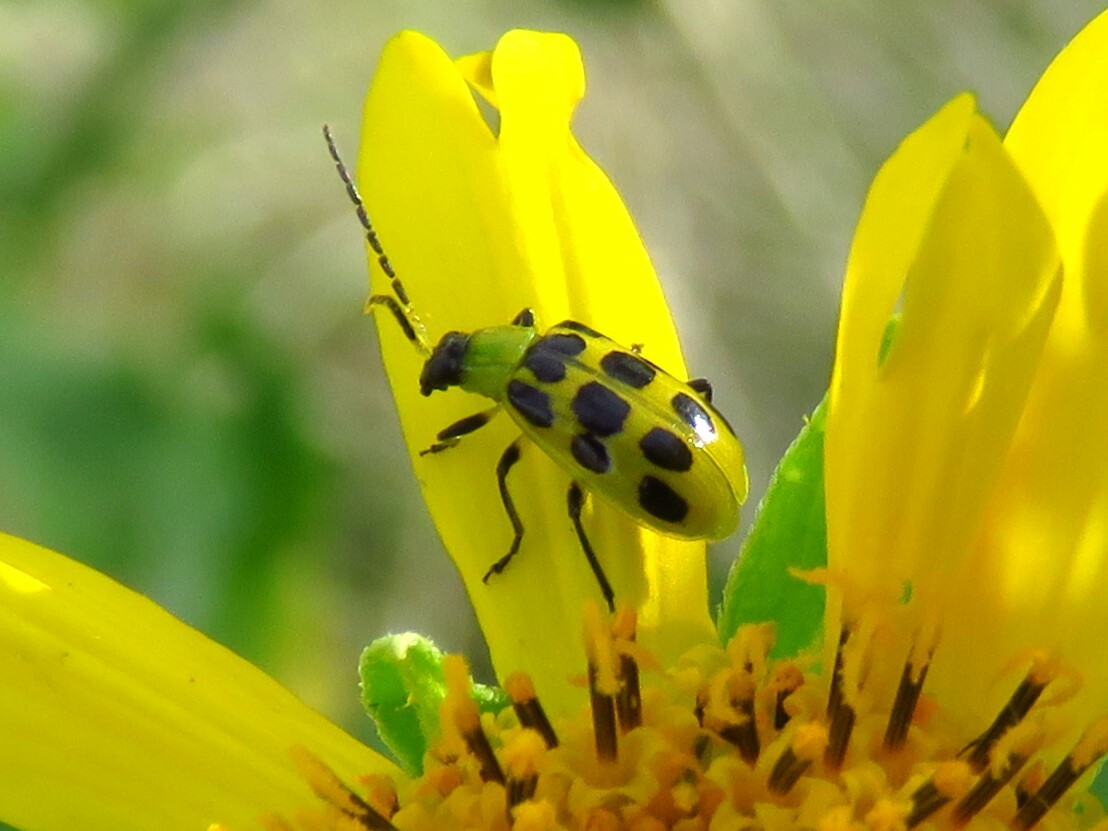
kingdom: Animalia
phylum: Arthropoda
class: Insecta
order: Coleoptera
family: Chrysomelidae
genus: Diabrotica
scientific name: Diabrotica undecimpunctata
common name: Spotted cucumber beetle
